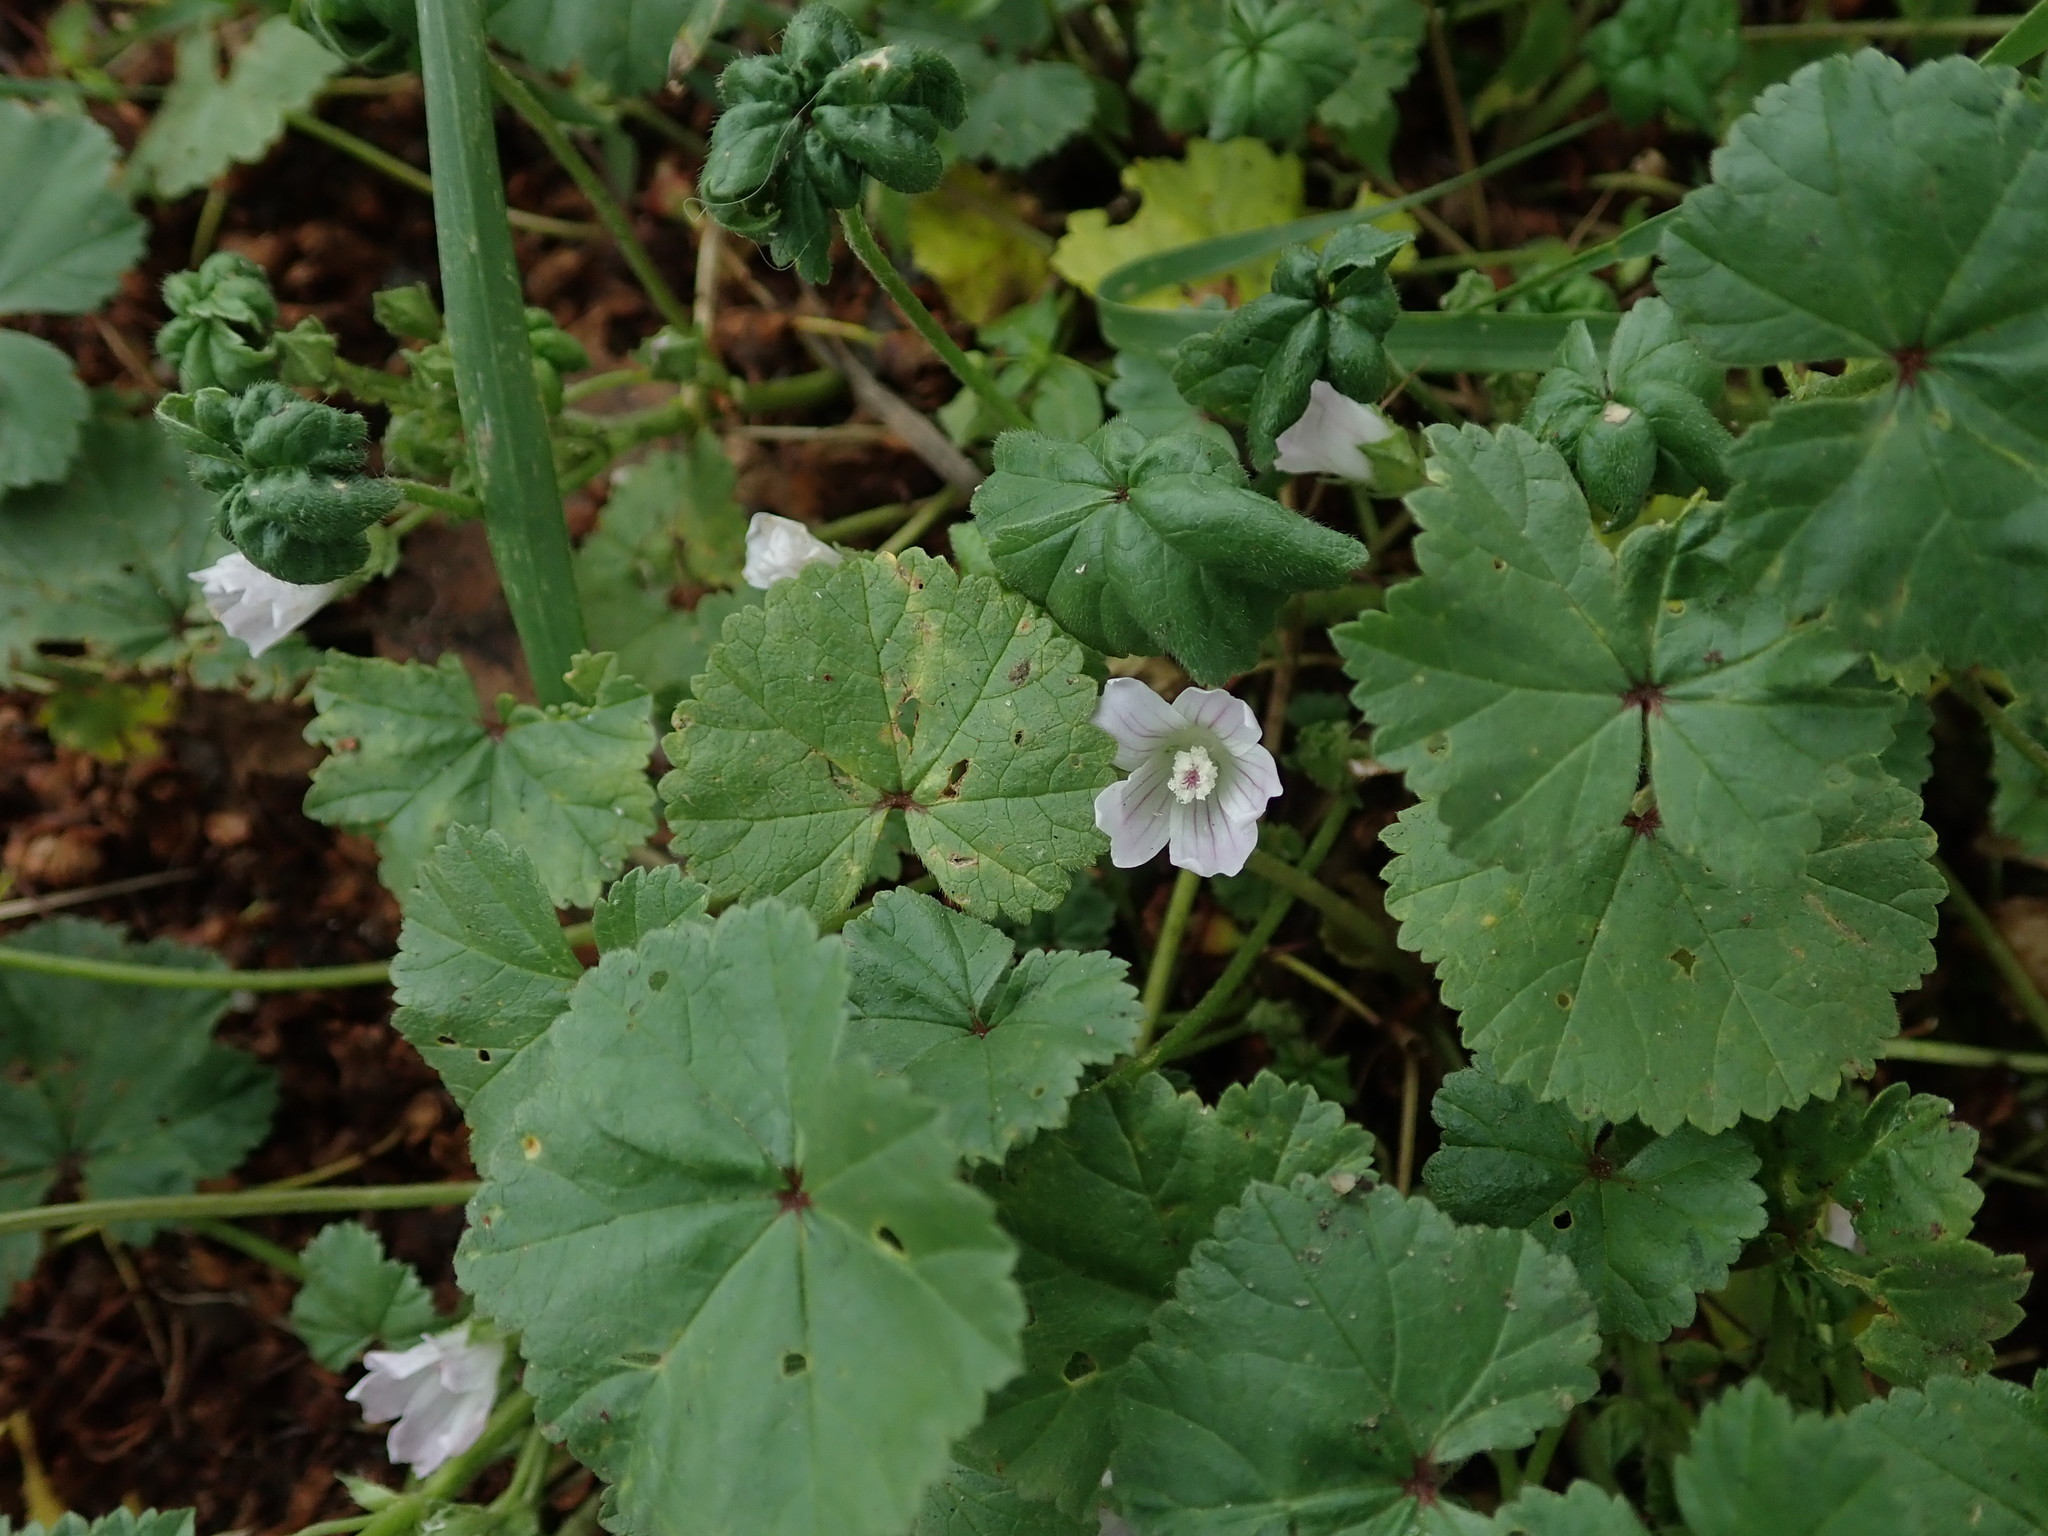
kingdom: Plantae
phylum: Tracheophyta
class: Magnoliopsida
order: Malvales
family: Malvaceae
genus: Malva
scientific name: Malva neglecta
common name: Common mallow
